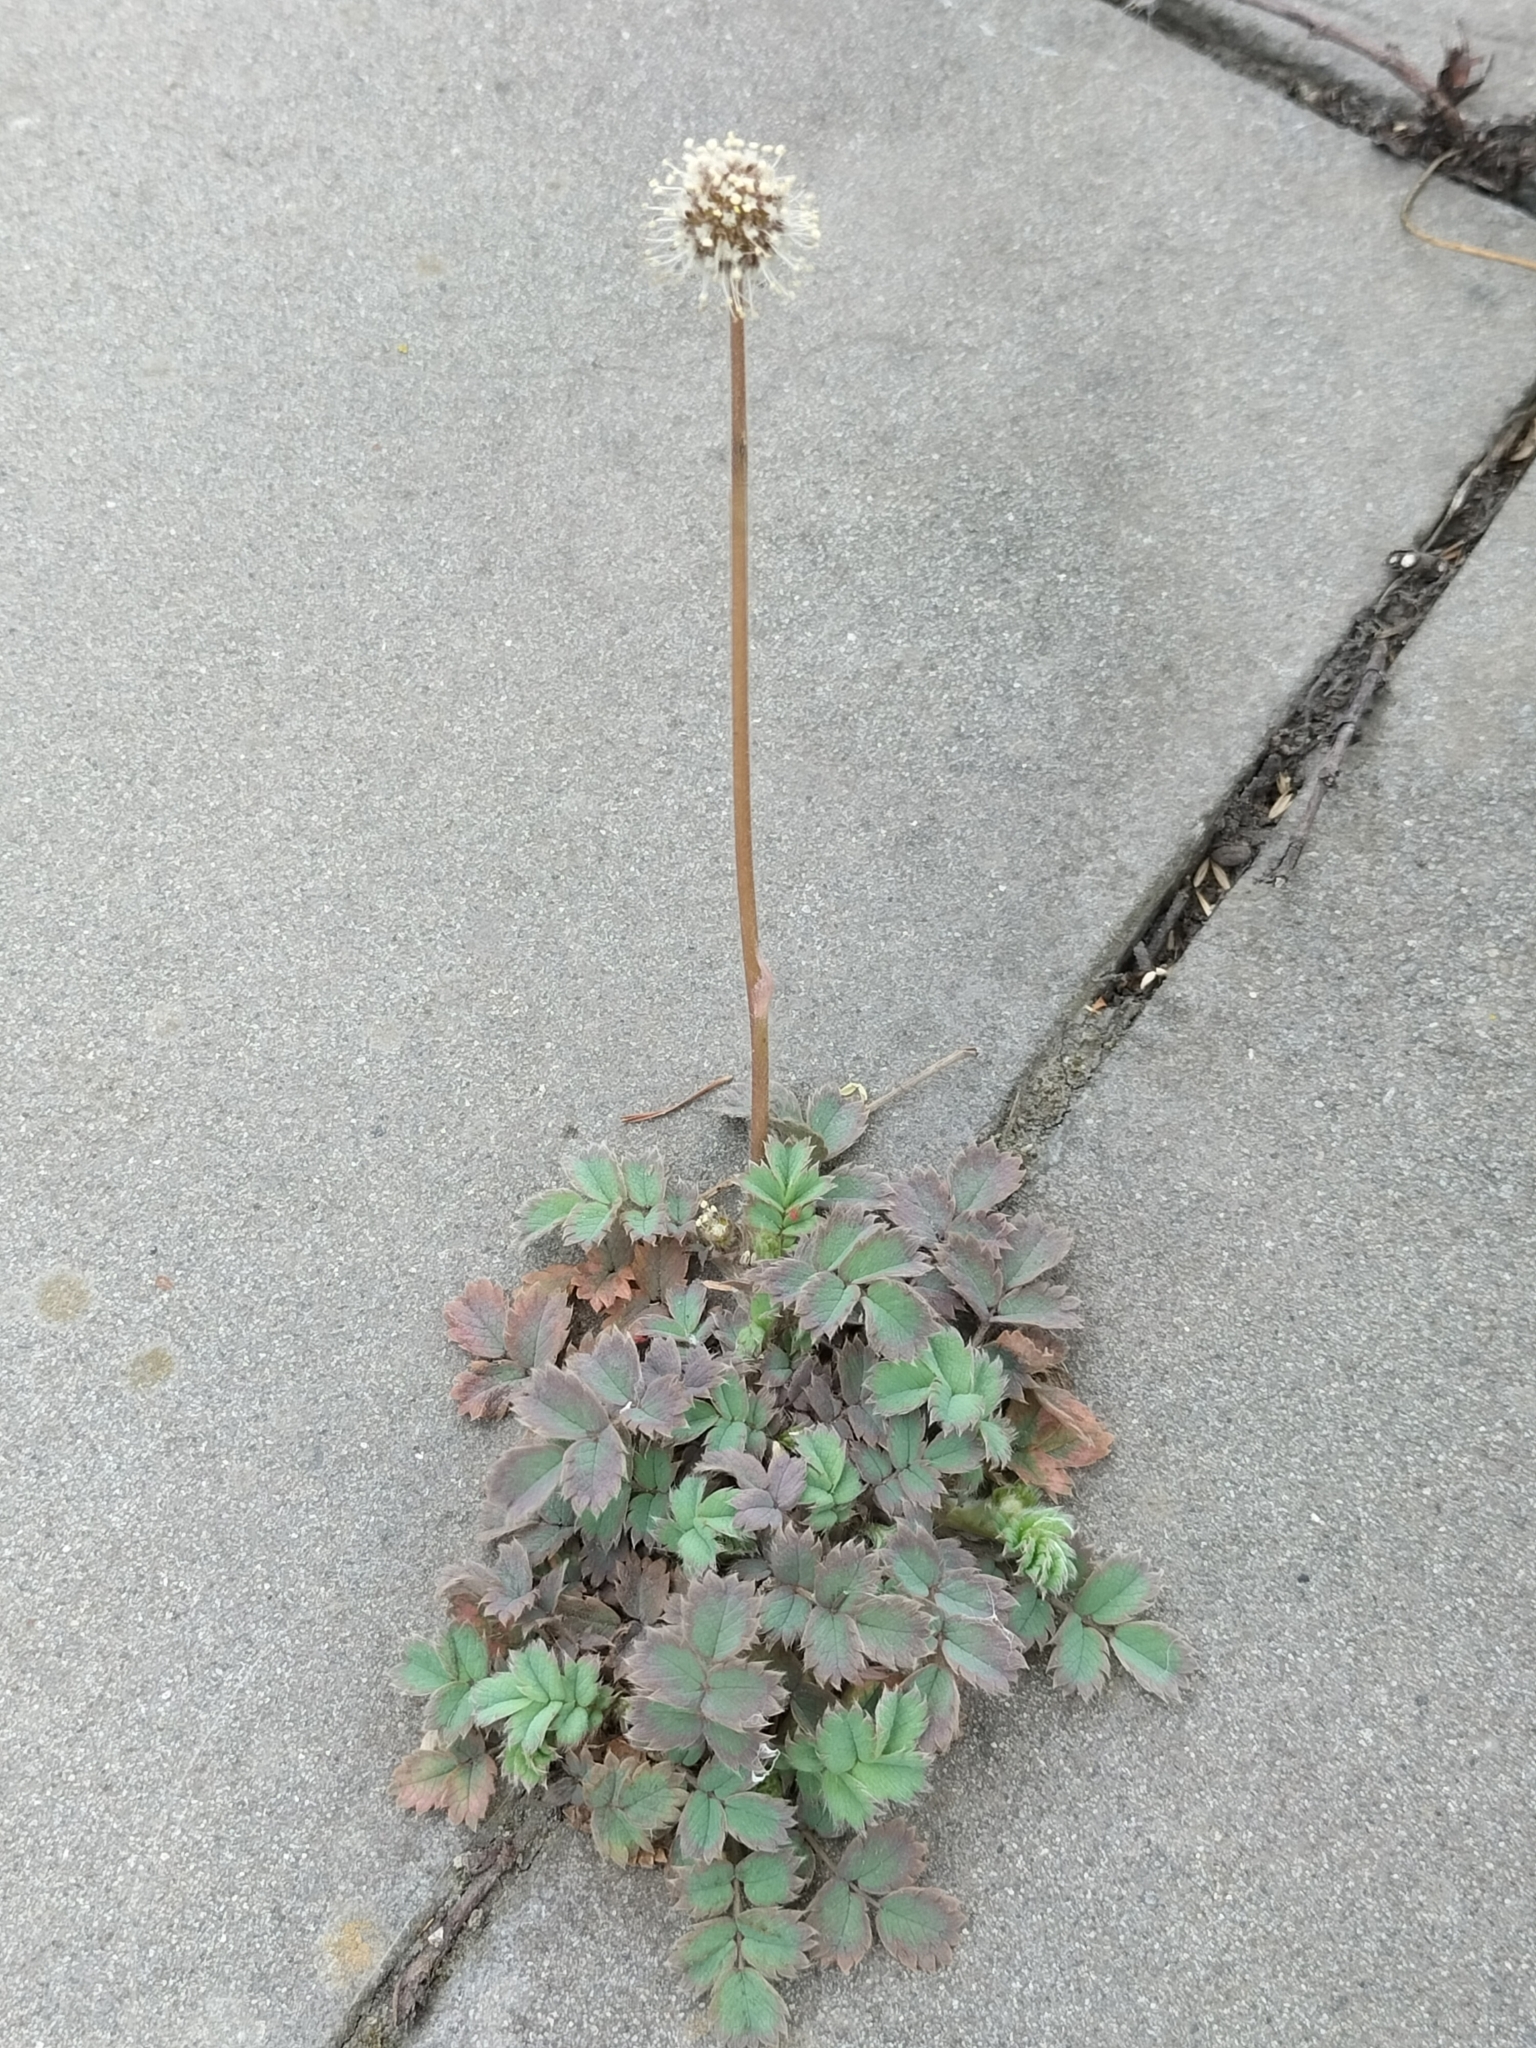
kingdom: Plantae
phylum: Tracheophyta
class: Magnoliopsida
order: Rosales
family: Rosaceae
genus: Acaena
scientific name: Acaena caesiiglauca
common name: Glaucous pirri-pirri-bur
